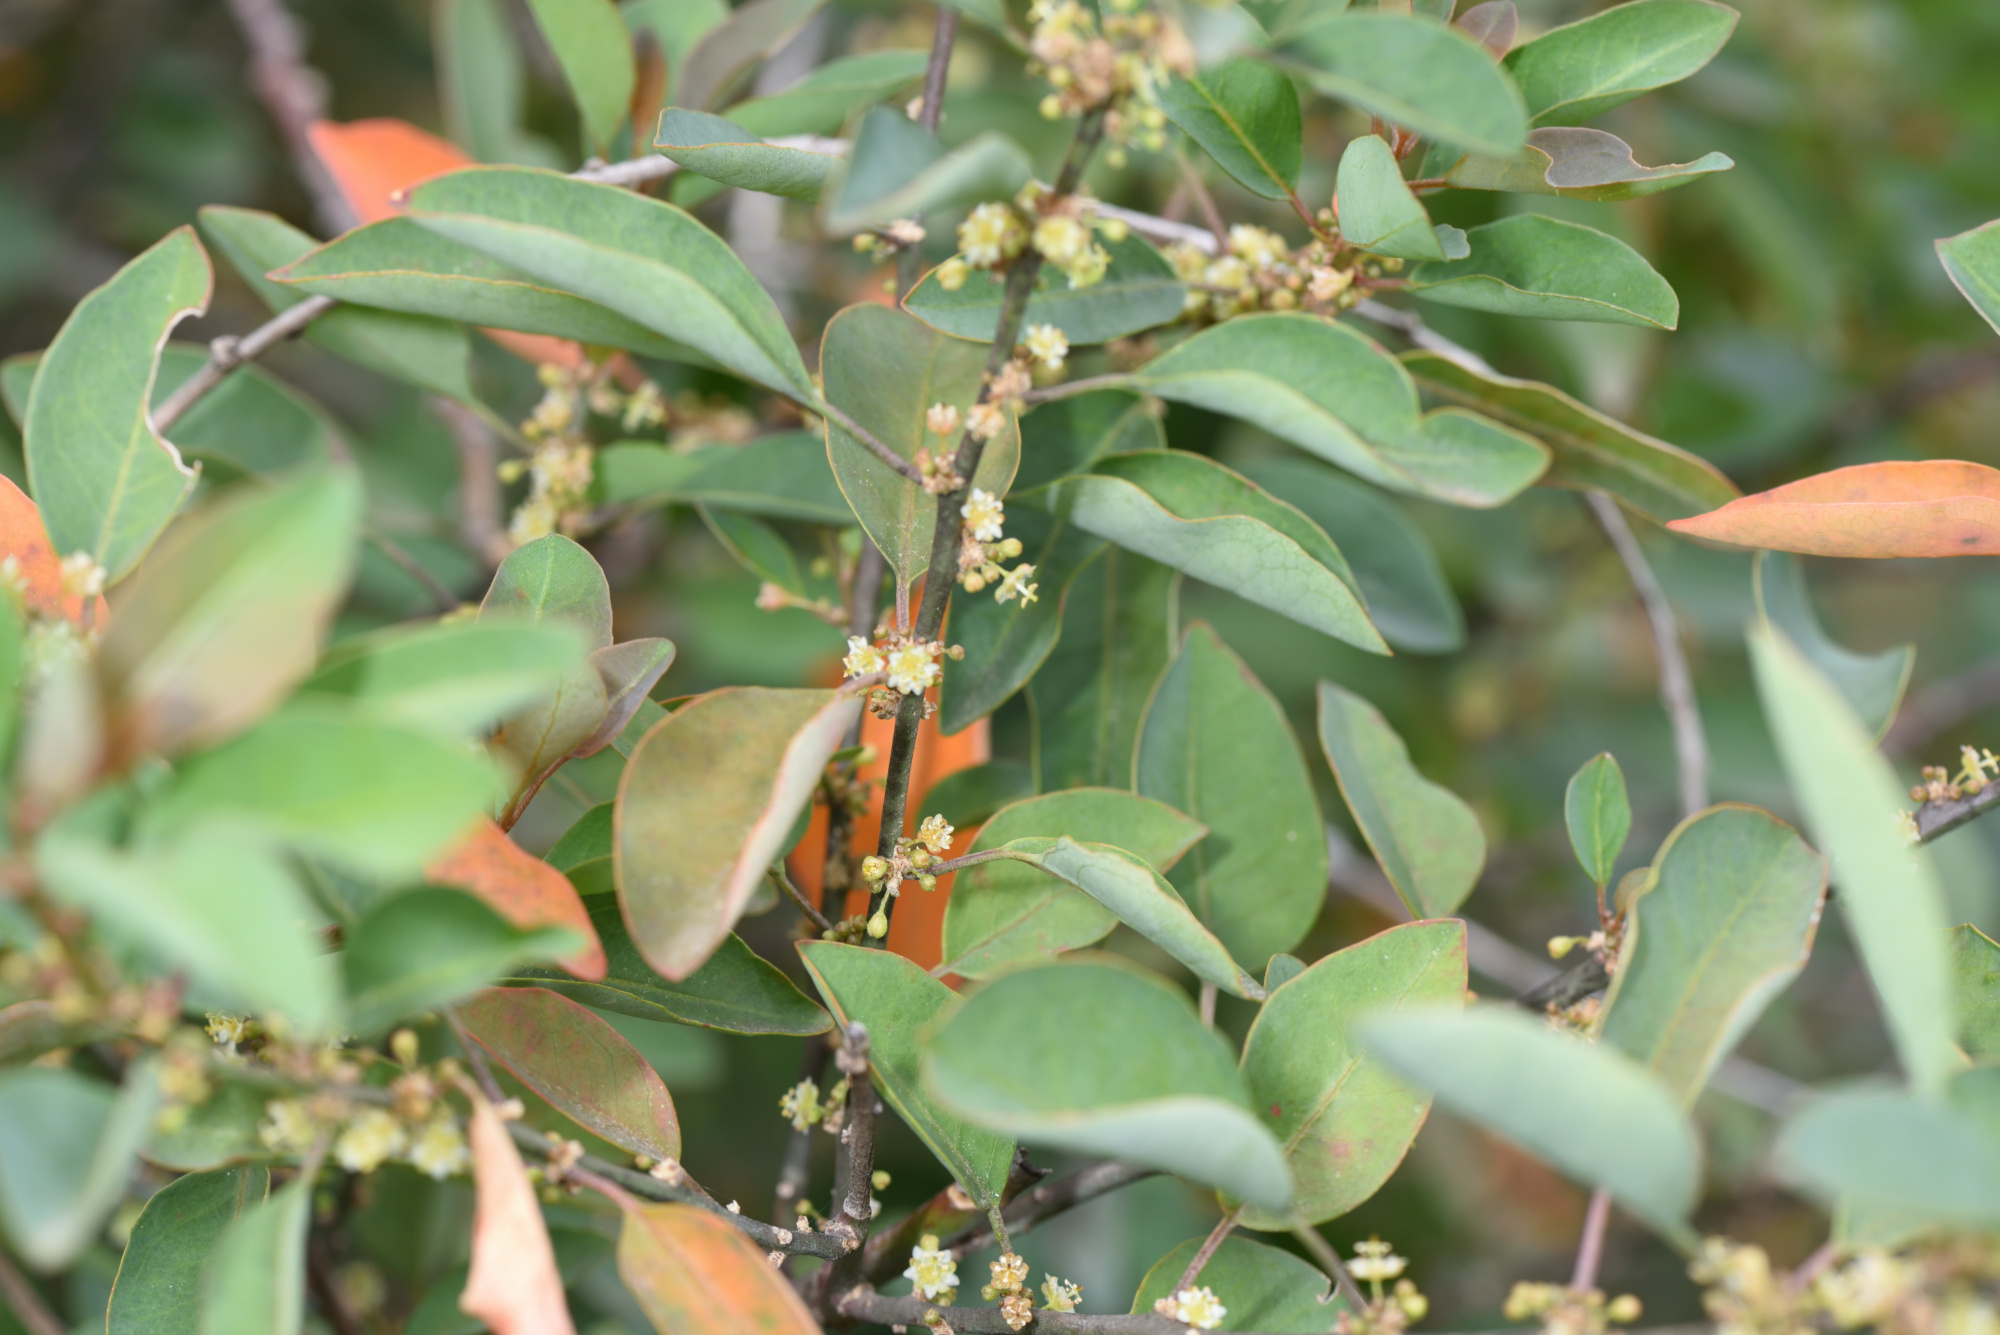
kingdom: Plantae
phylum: Tracheophyta
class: Magnoliopsida
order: Malpighiales
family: Peraceae
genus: Clutia
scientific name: Clutia pulchella
